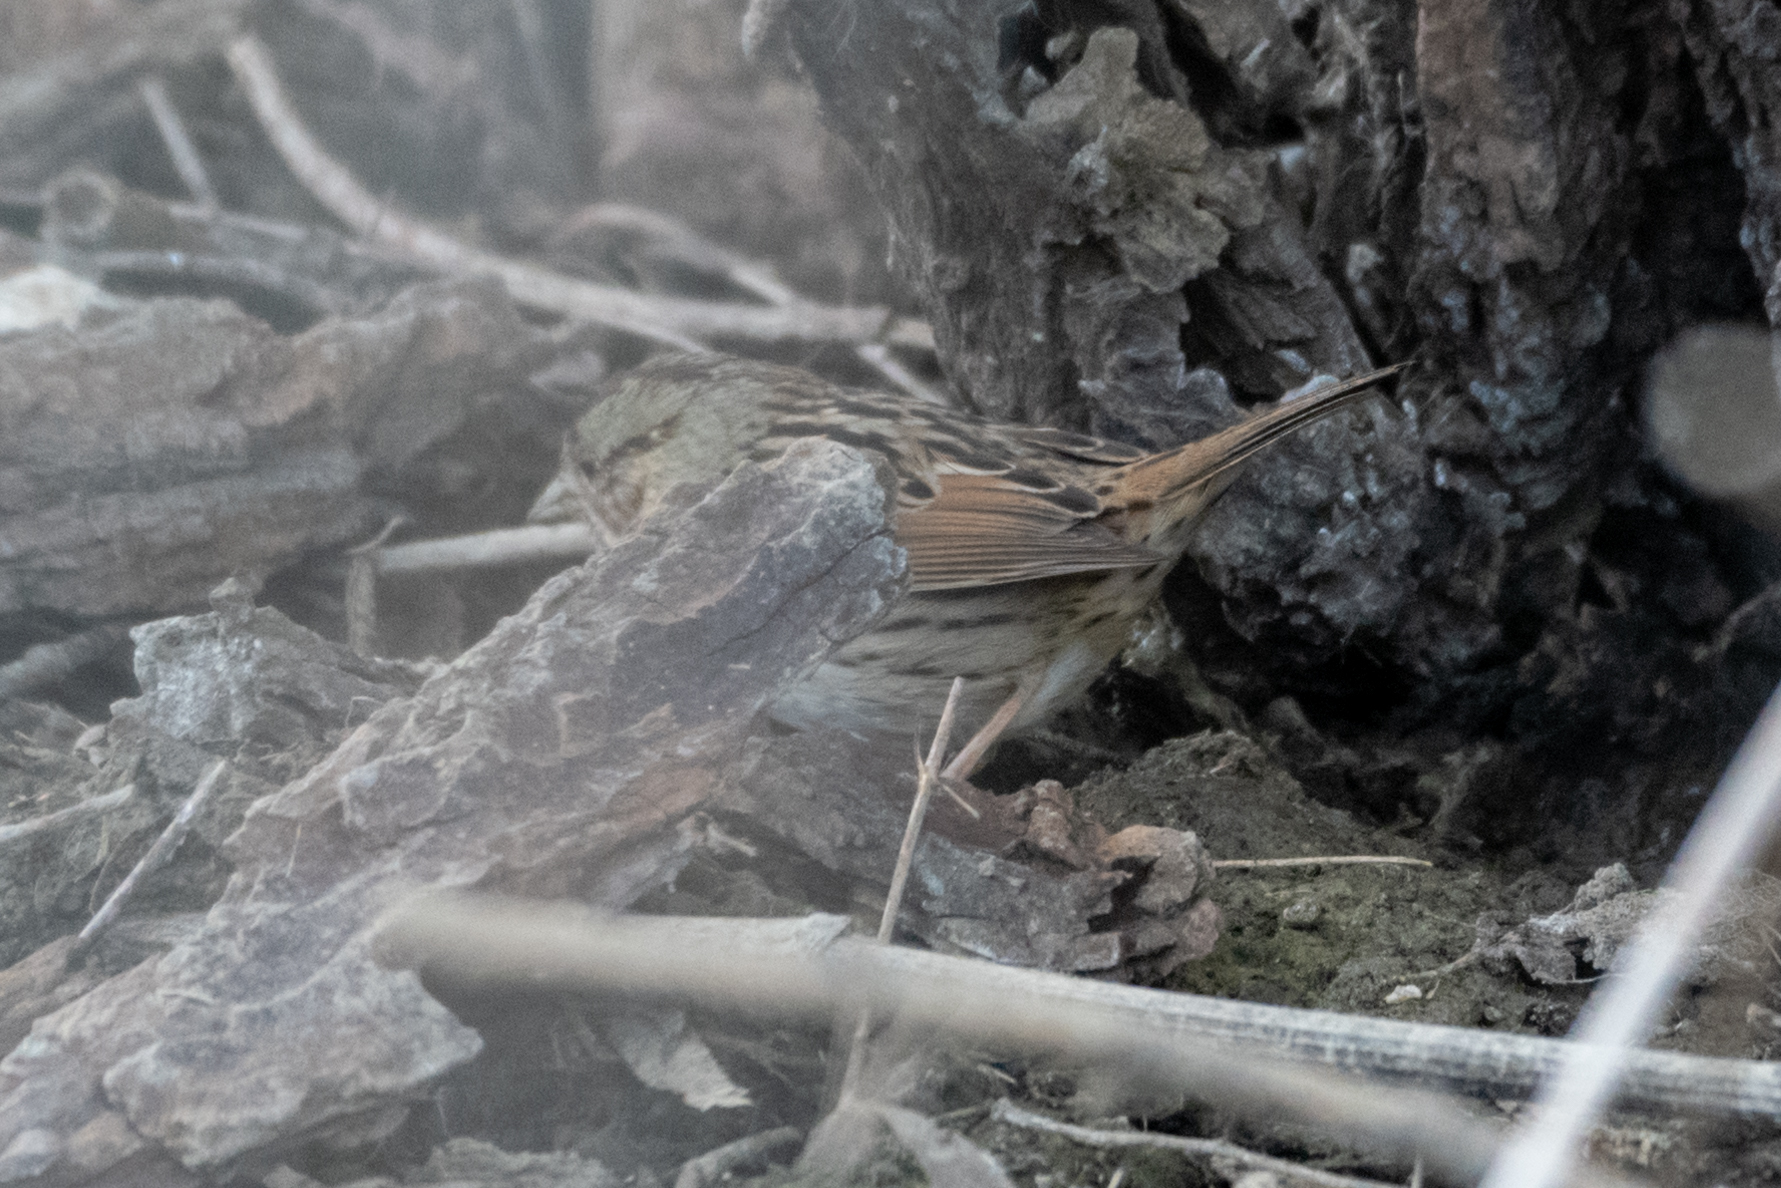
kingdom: Animalia
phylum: Chordata
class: Aves
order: Passeriformes
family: Passerellidae
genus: Melospiza
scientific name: Melospiza lincolnii
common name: Lincoln's sparrow
